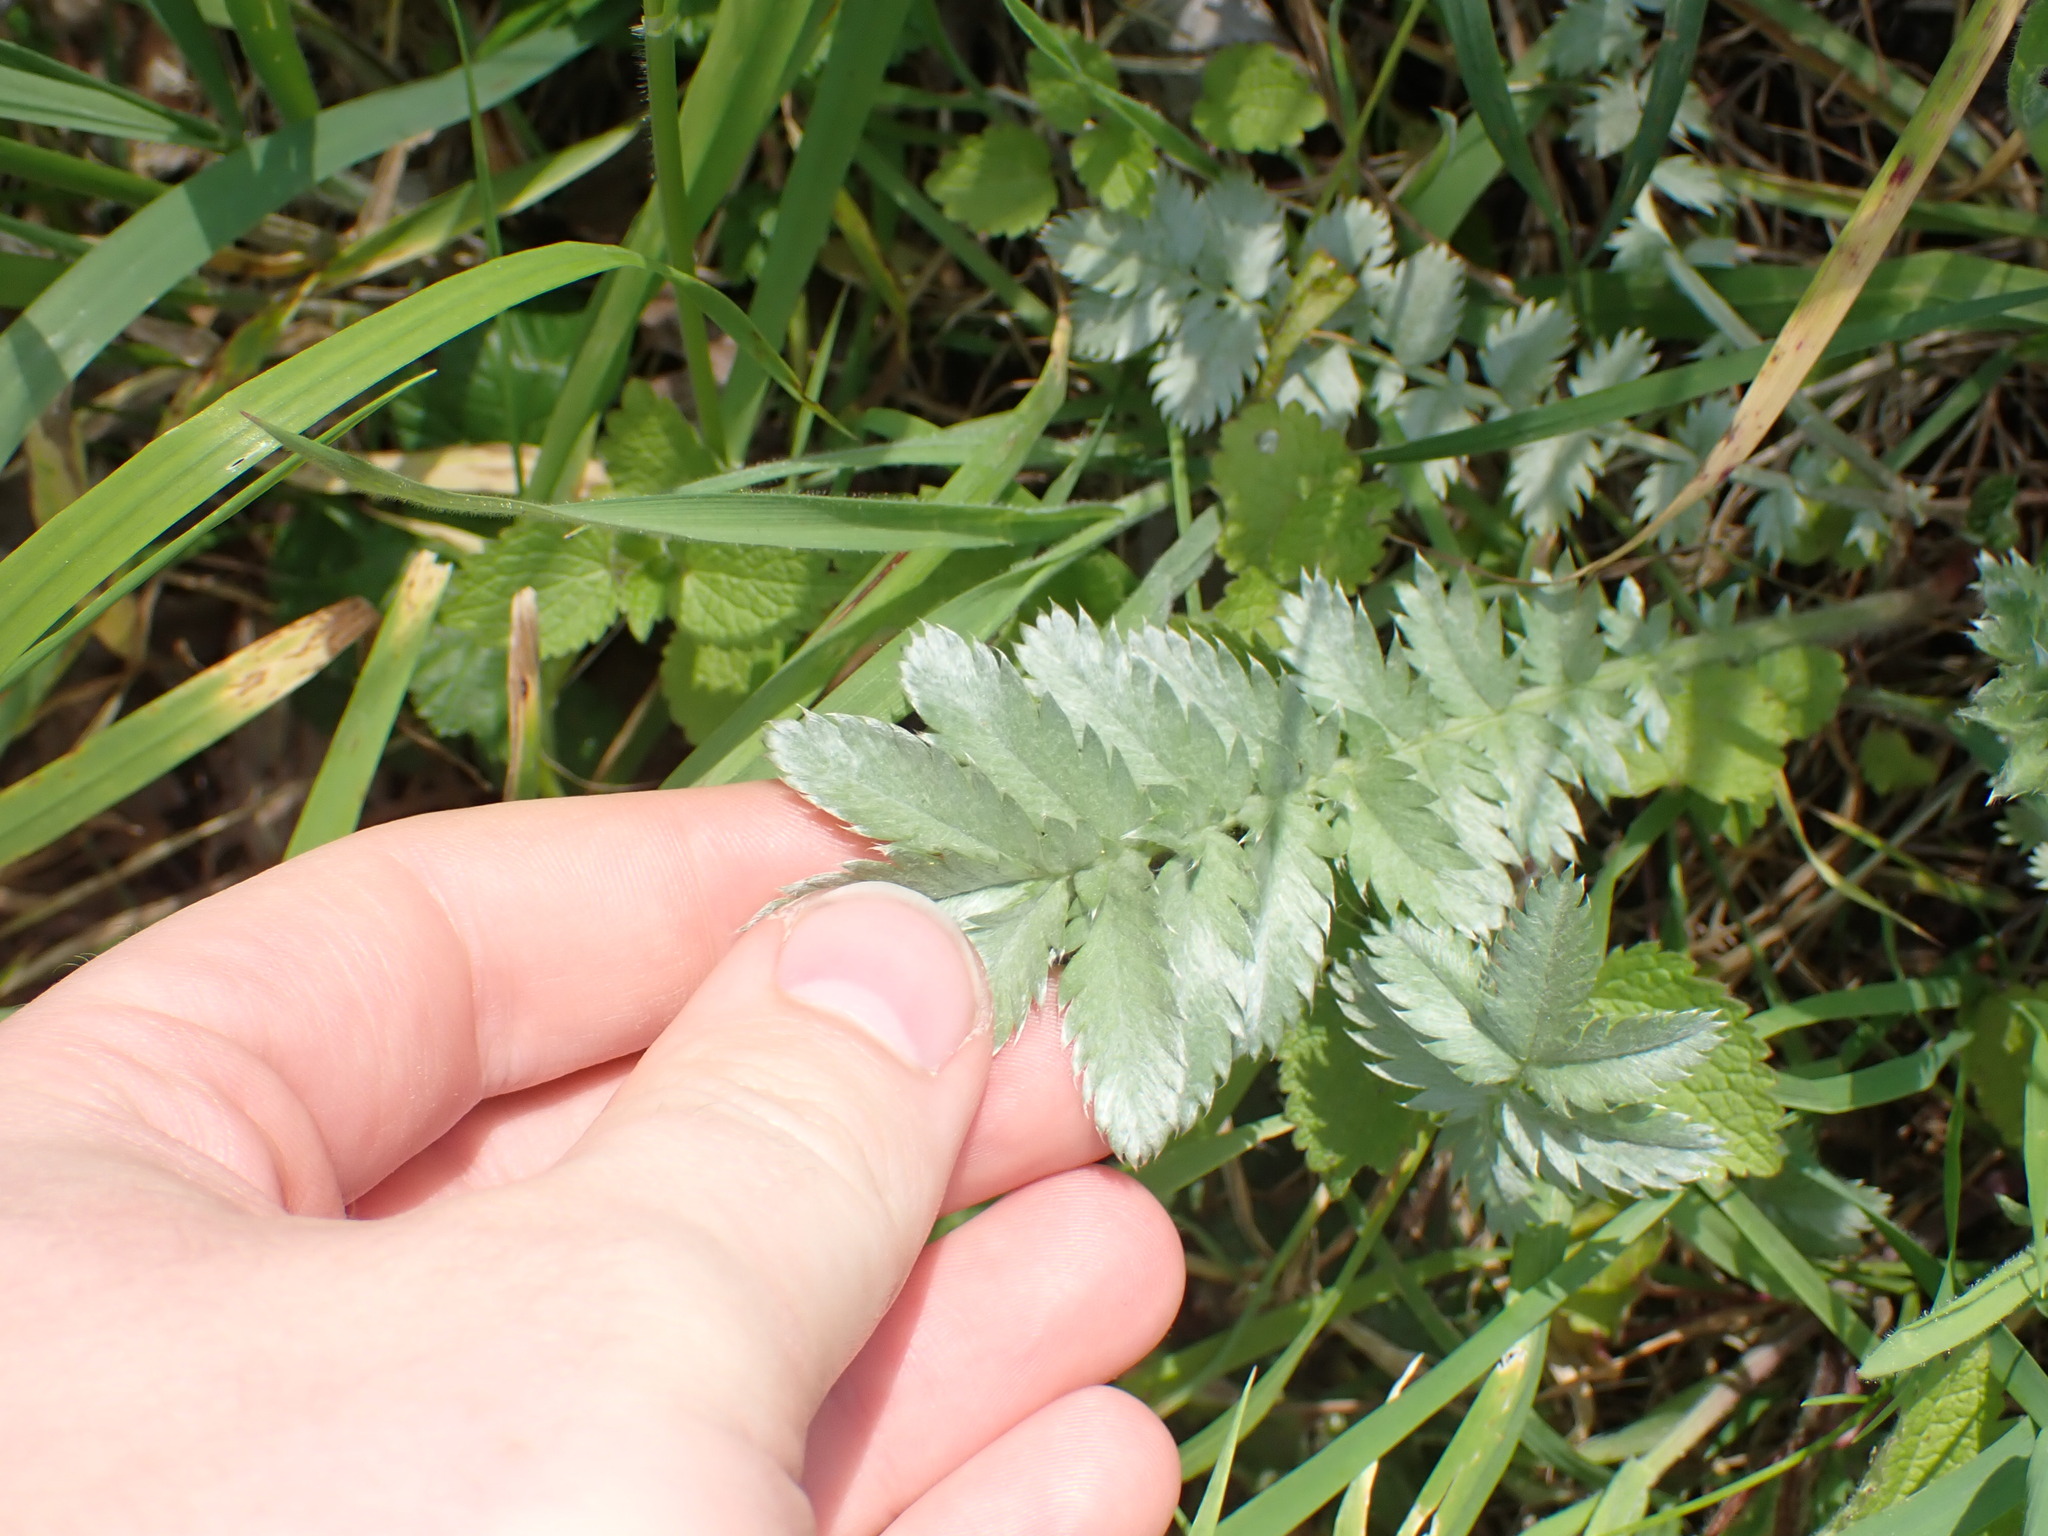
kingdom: Plantae
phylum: Tracheophyta
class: Magnoliopsida
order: Rosales
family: Rosaceae
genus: Argentina
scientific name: Argentina anserina
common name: Common silverweed
